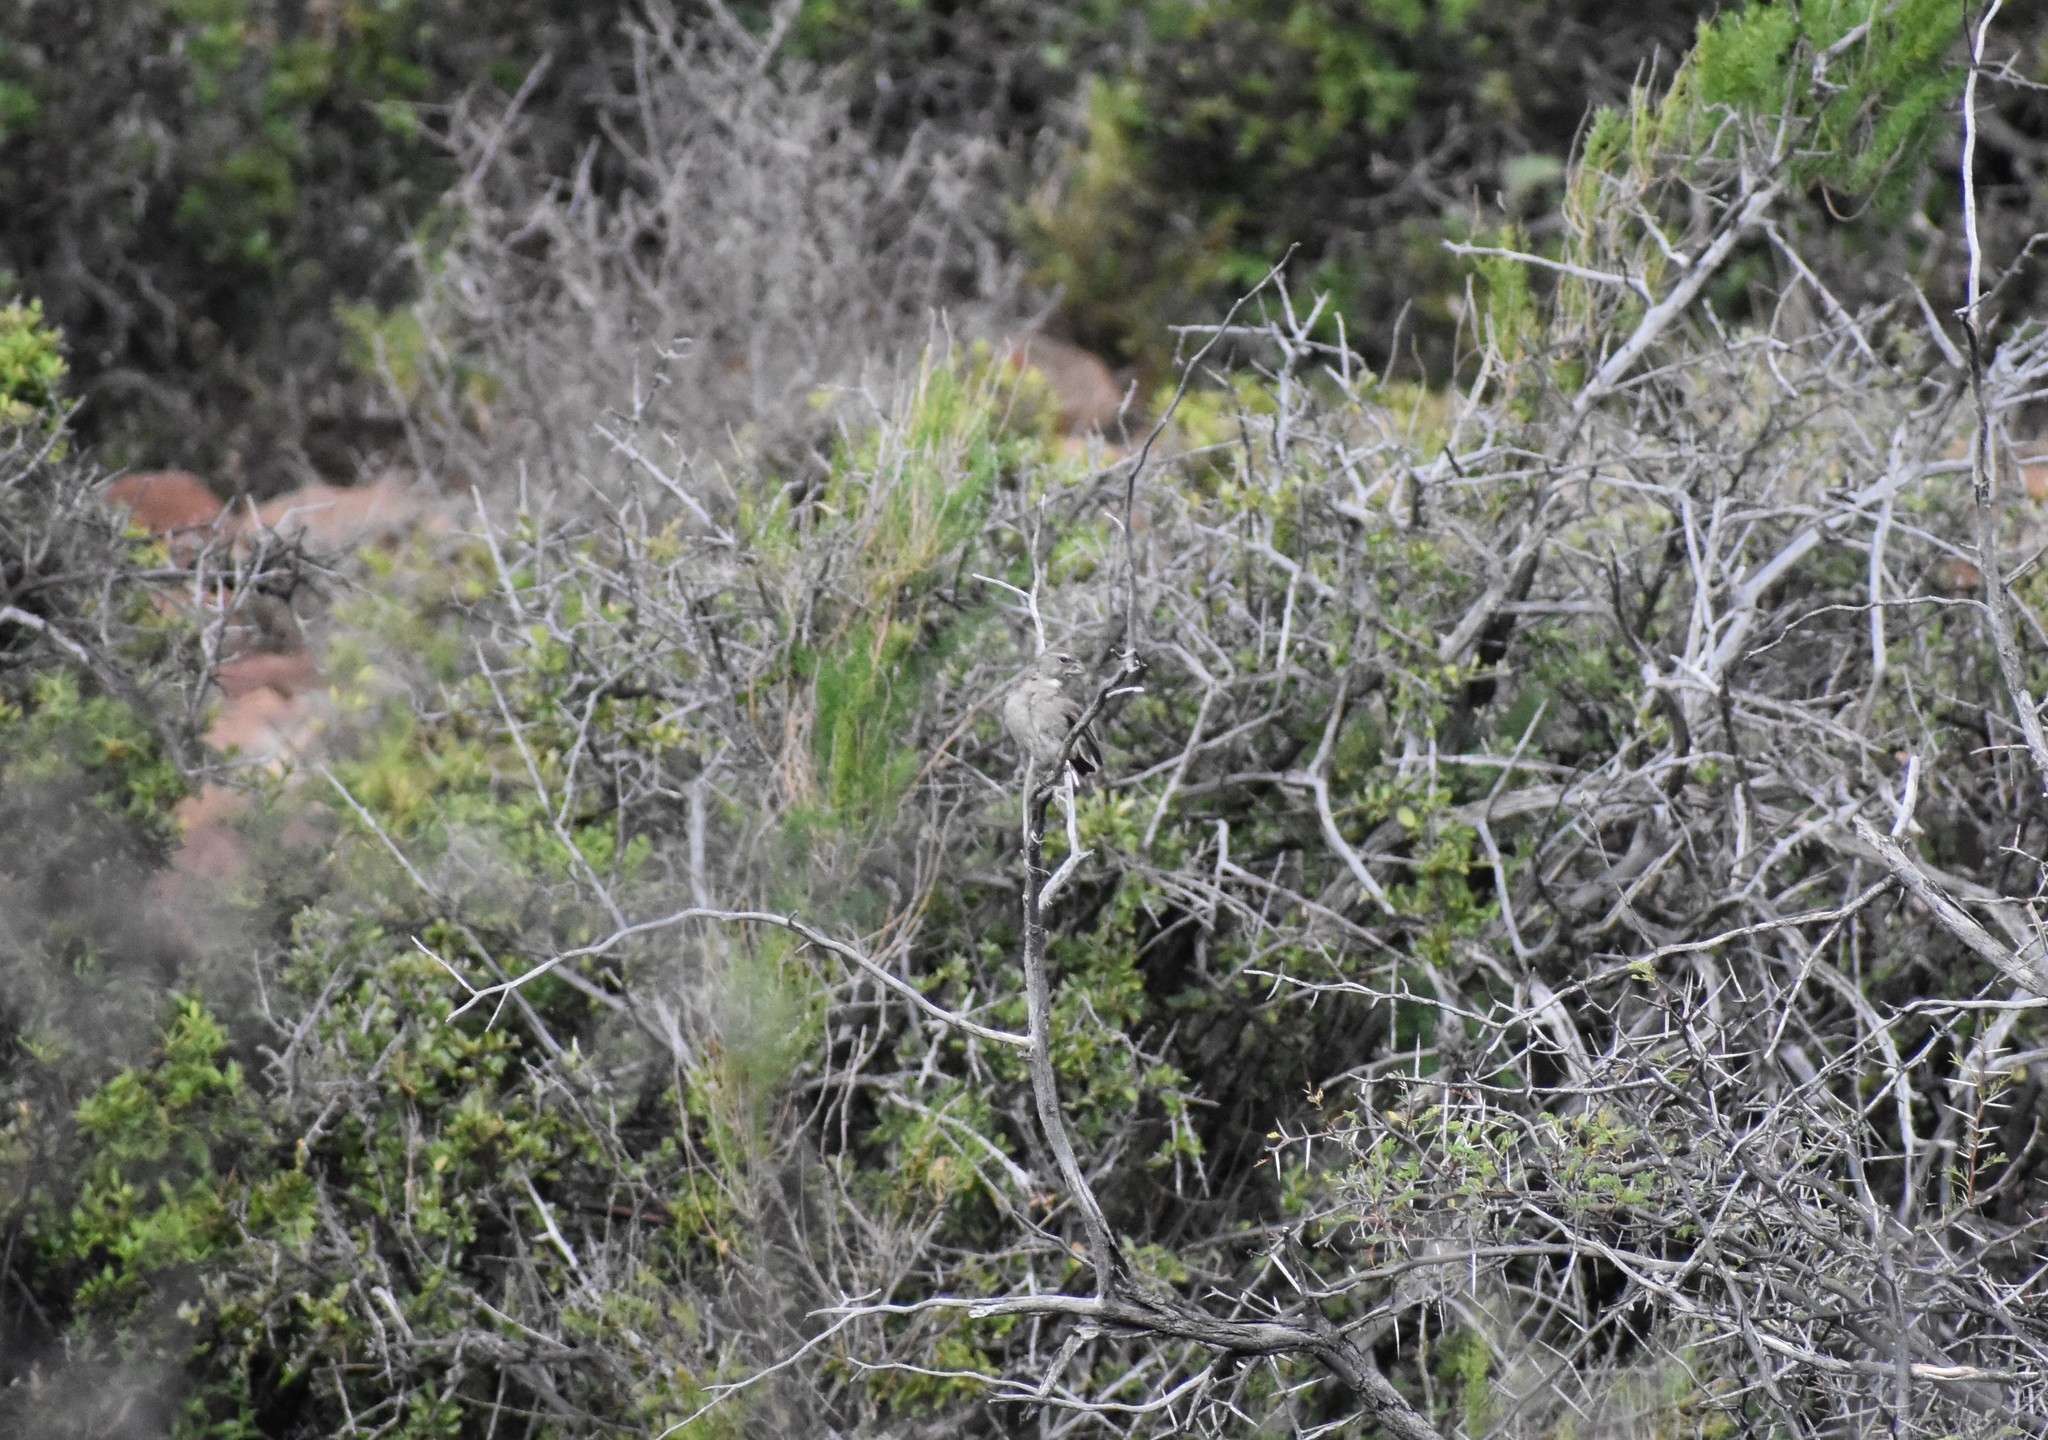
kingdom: Animalia
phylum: Chordata
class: Aves
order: Passeriformes
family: Fringillidae
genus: Crithagra
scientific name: Crithagra albogularis
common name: White-throated canary
